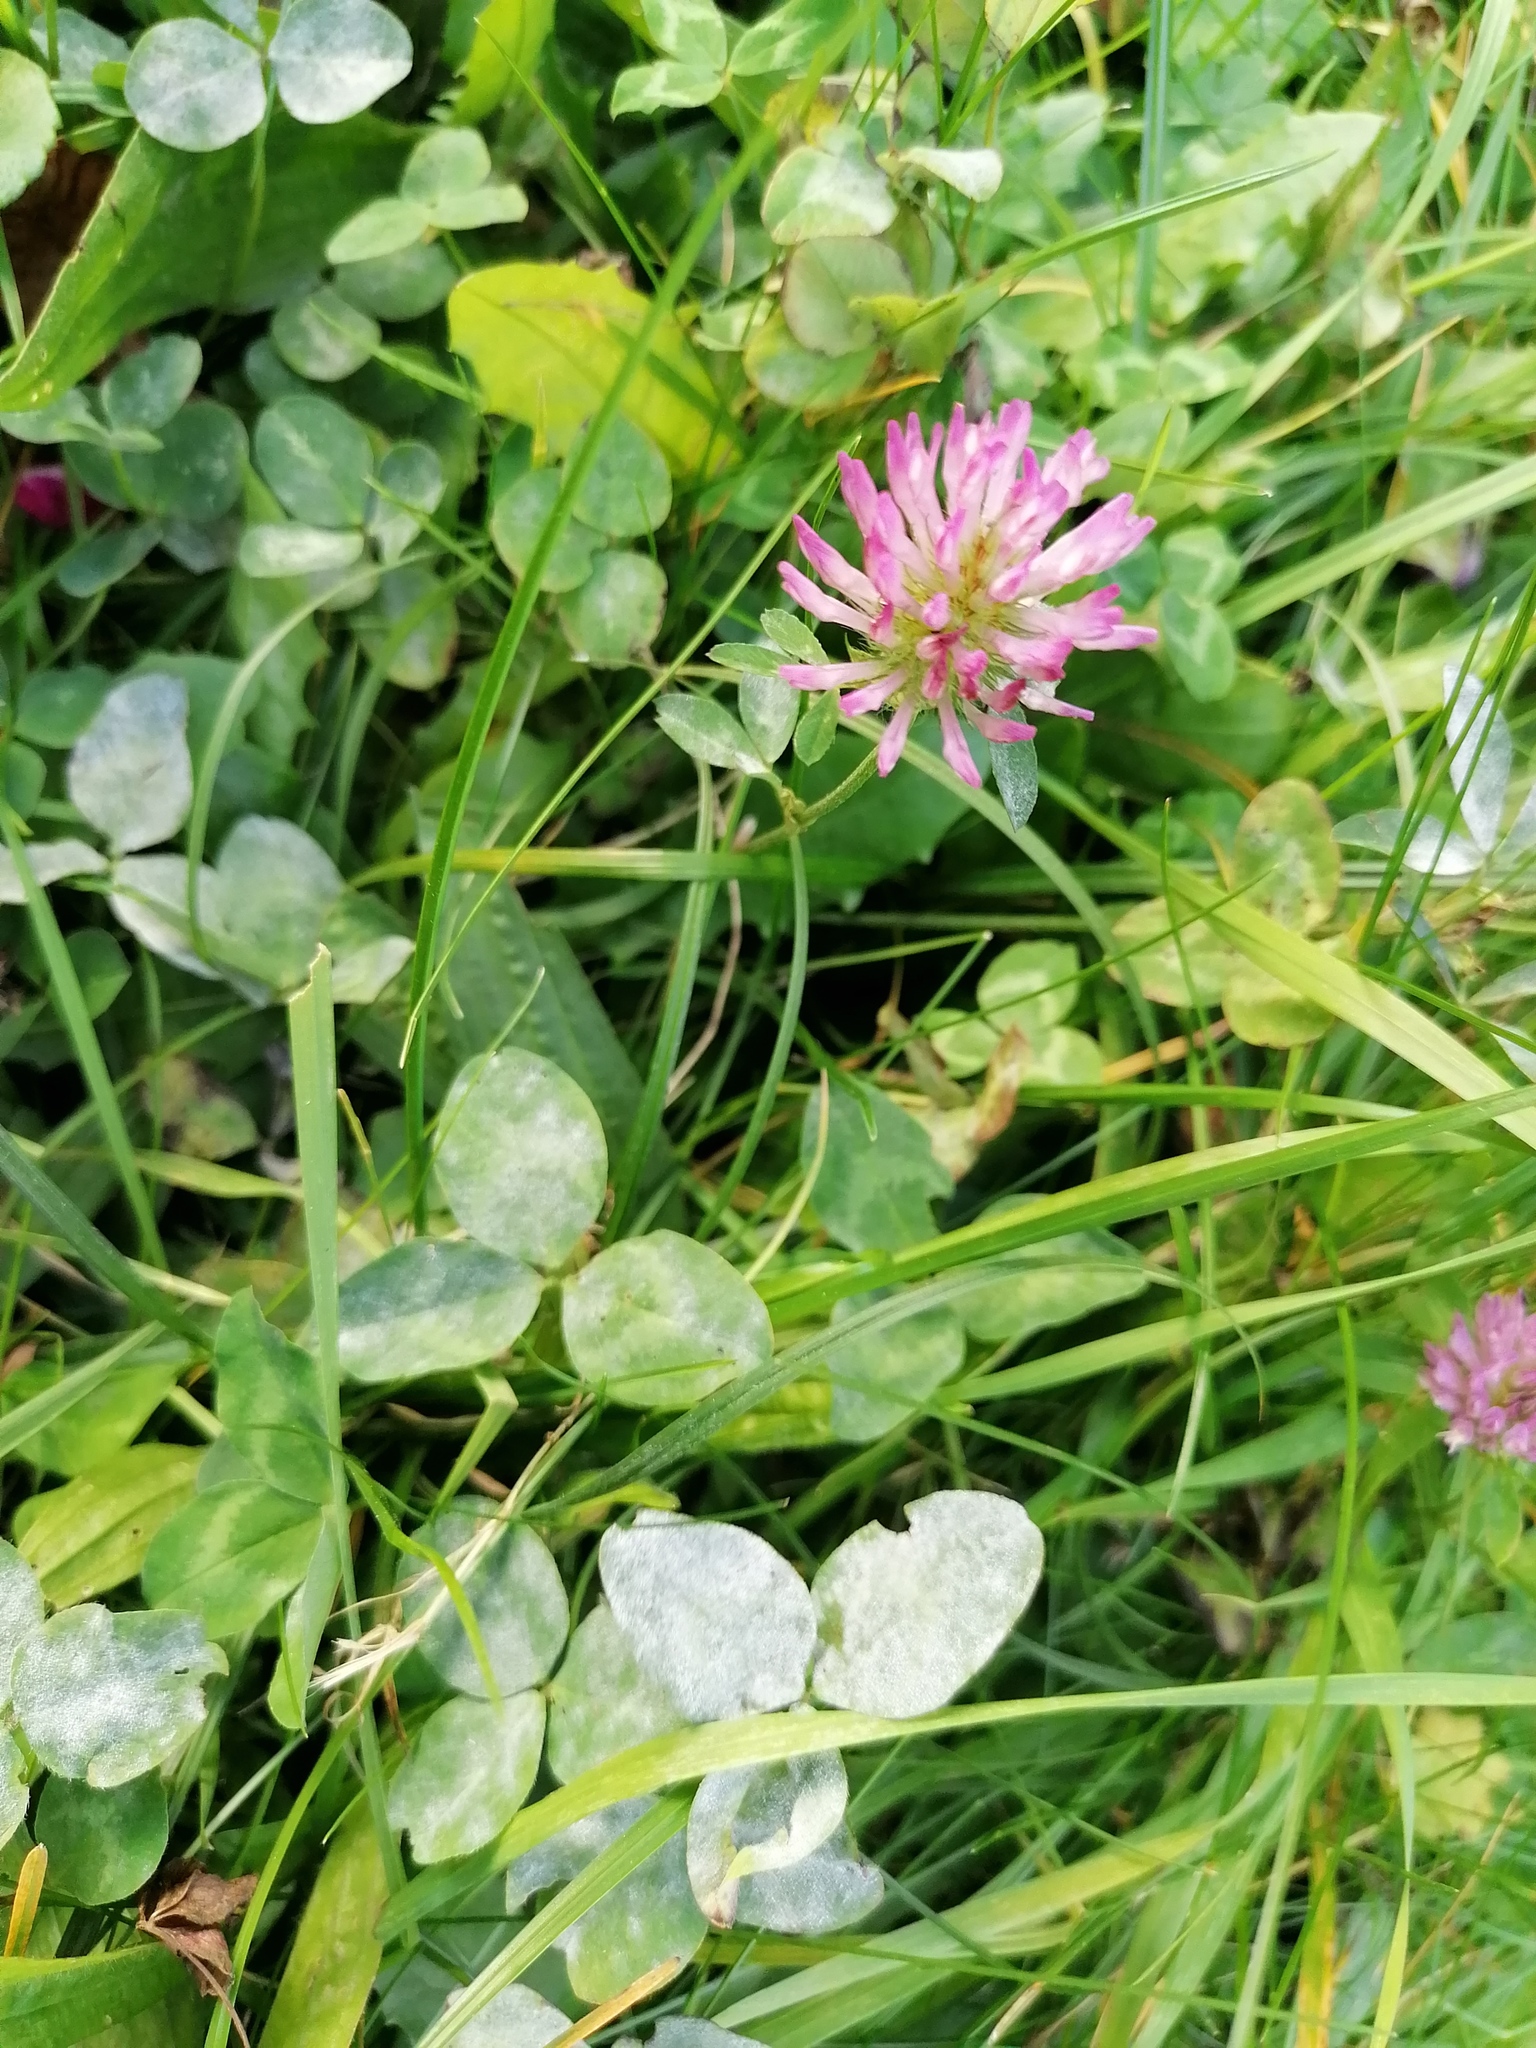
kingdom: Plantae
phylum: Tracheophyta
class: Magnoliopsida
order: Fabales
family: Fabaceae
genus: Trifolium
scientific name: Trifolium pratense
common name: Red clover
